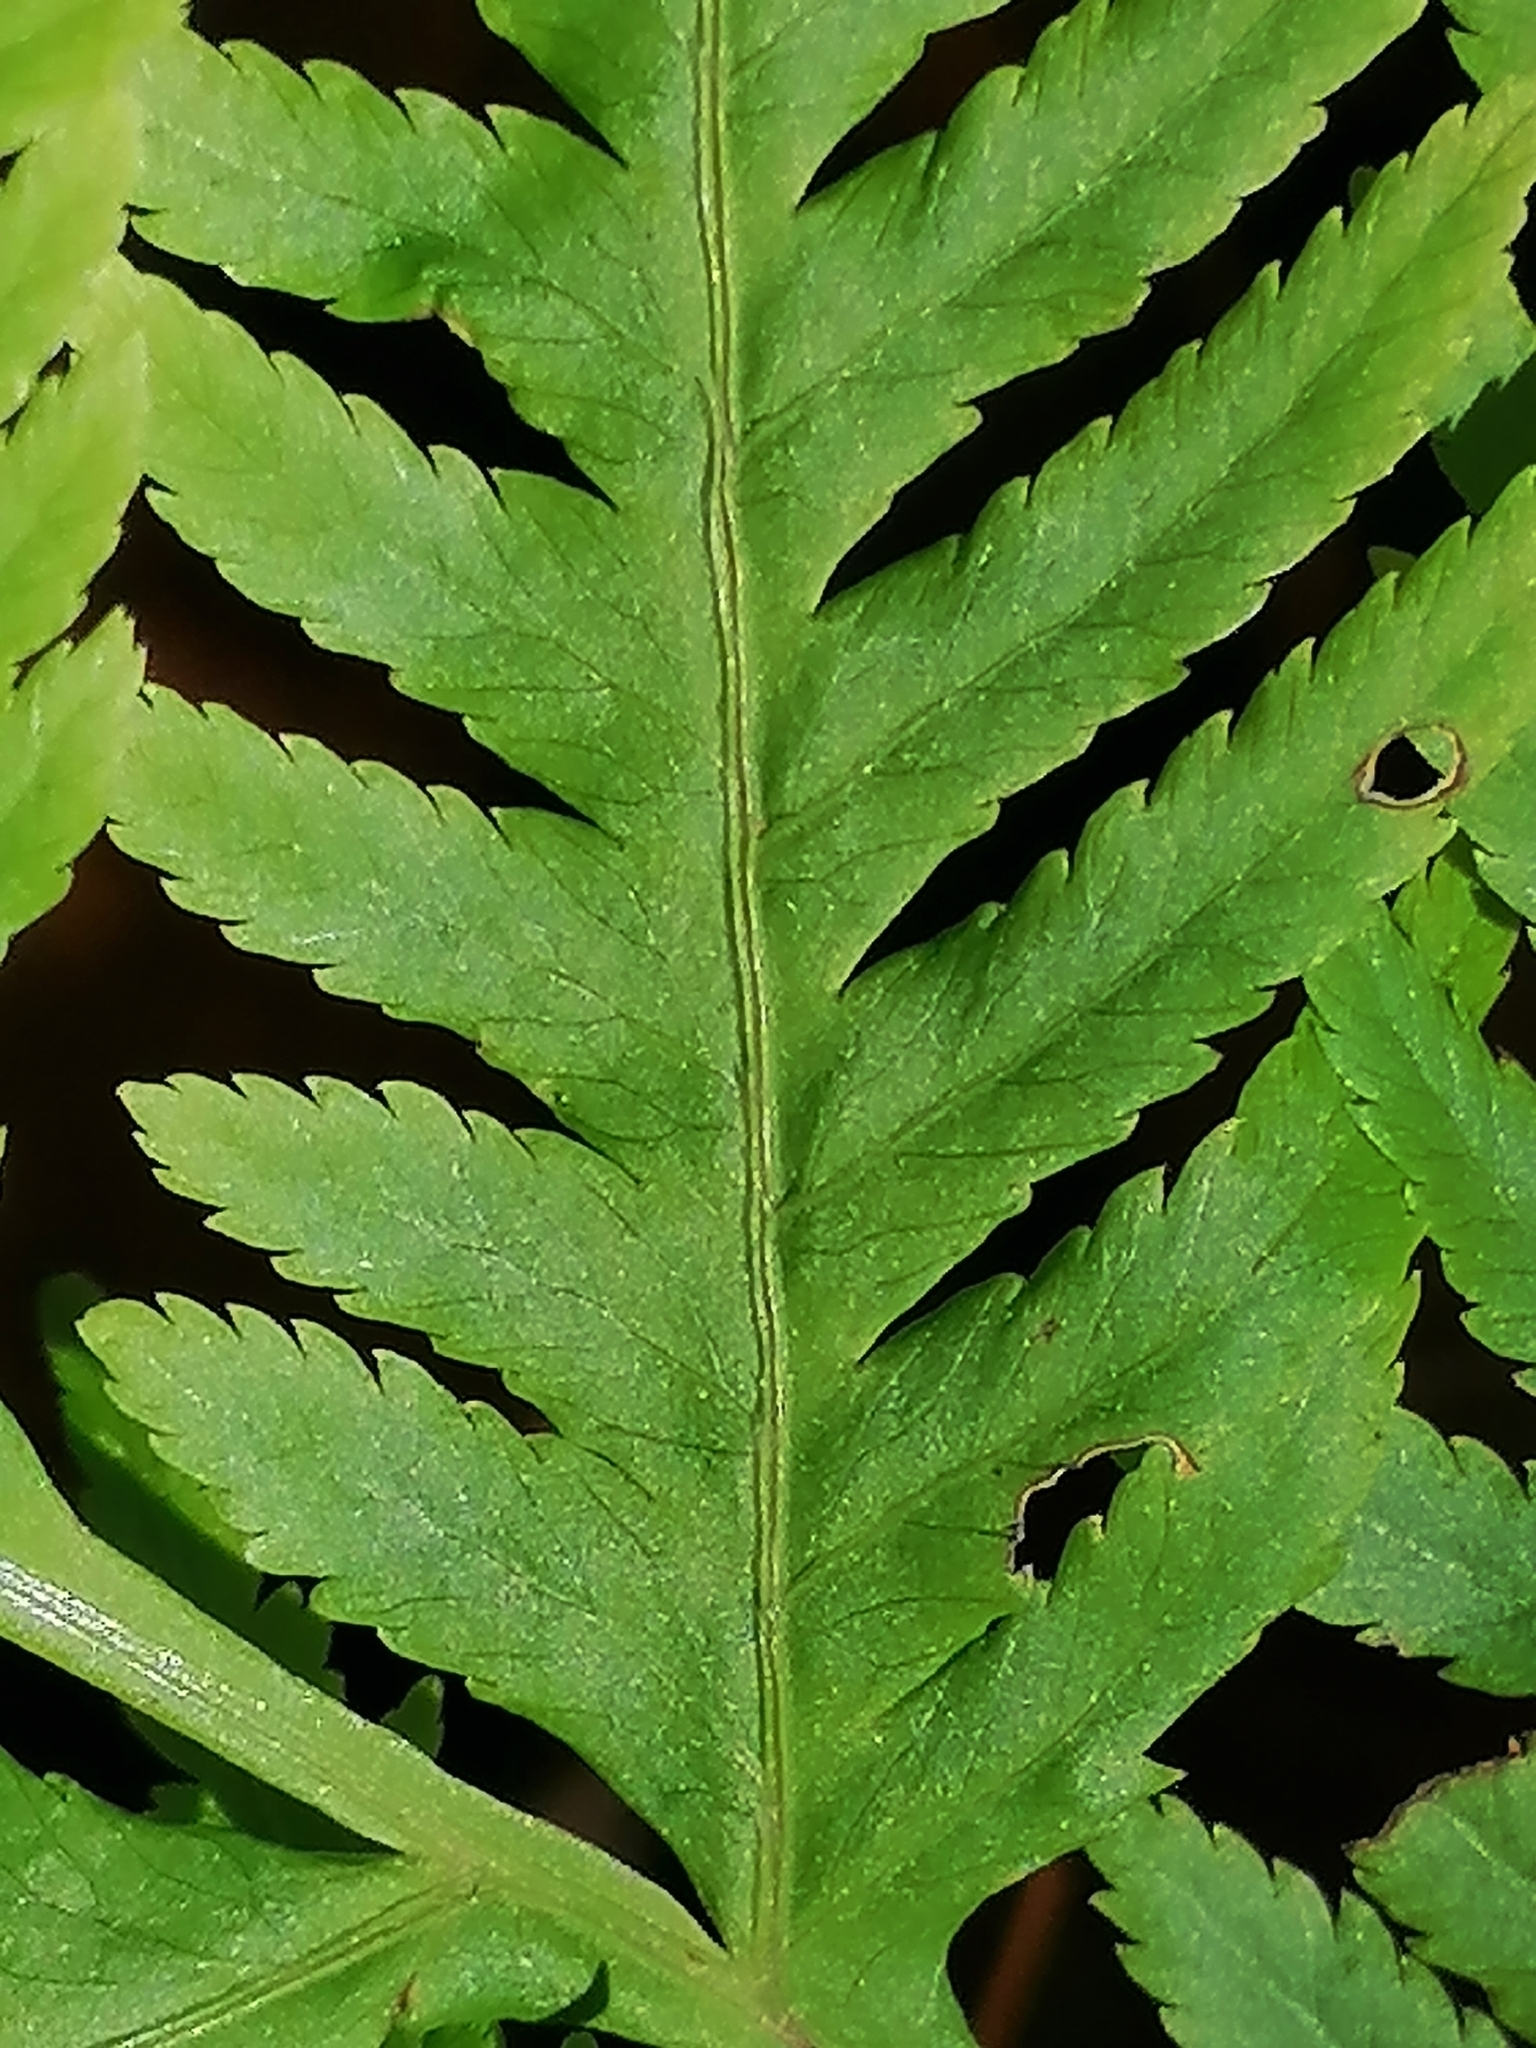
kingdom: Plantae
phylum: Tracheophyta
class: Polypodiopsida
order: Polypodiales
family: Pteridaceae
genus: Pteris
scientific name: Pteris tremula
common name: Australian brake
